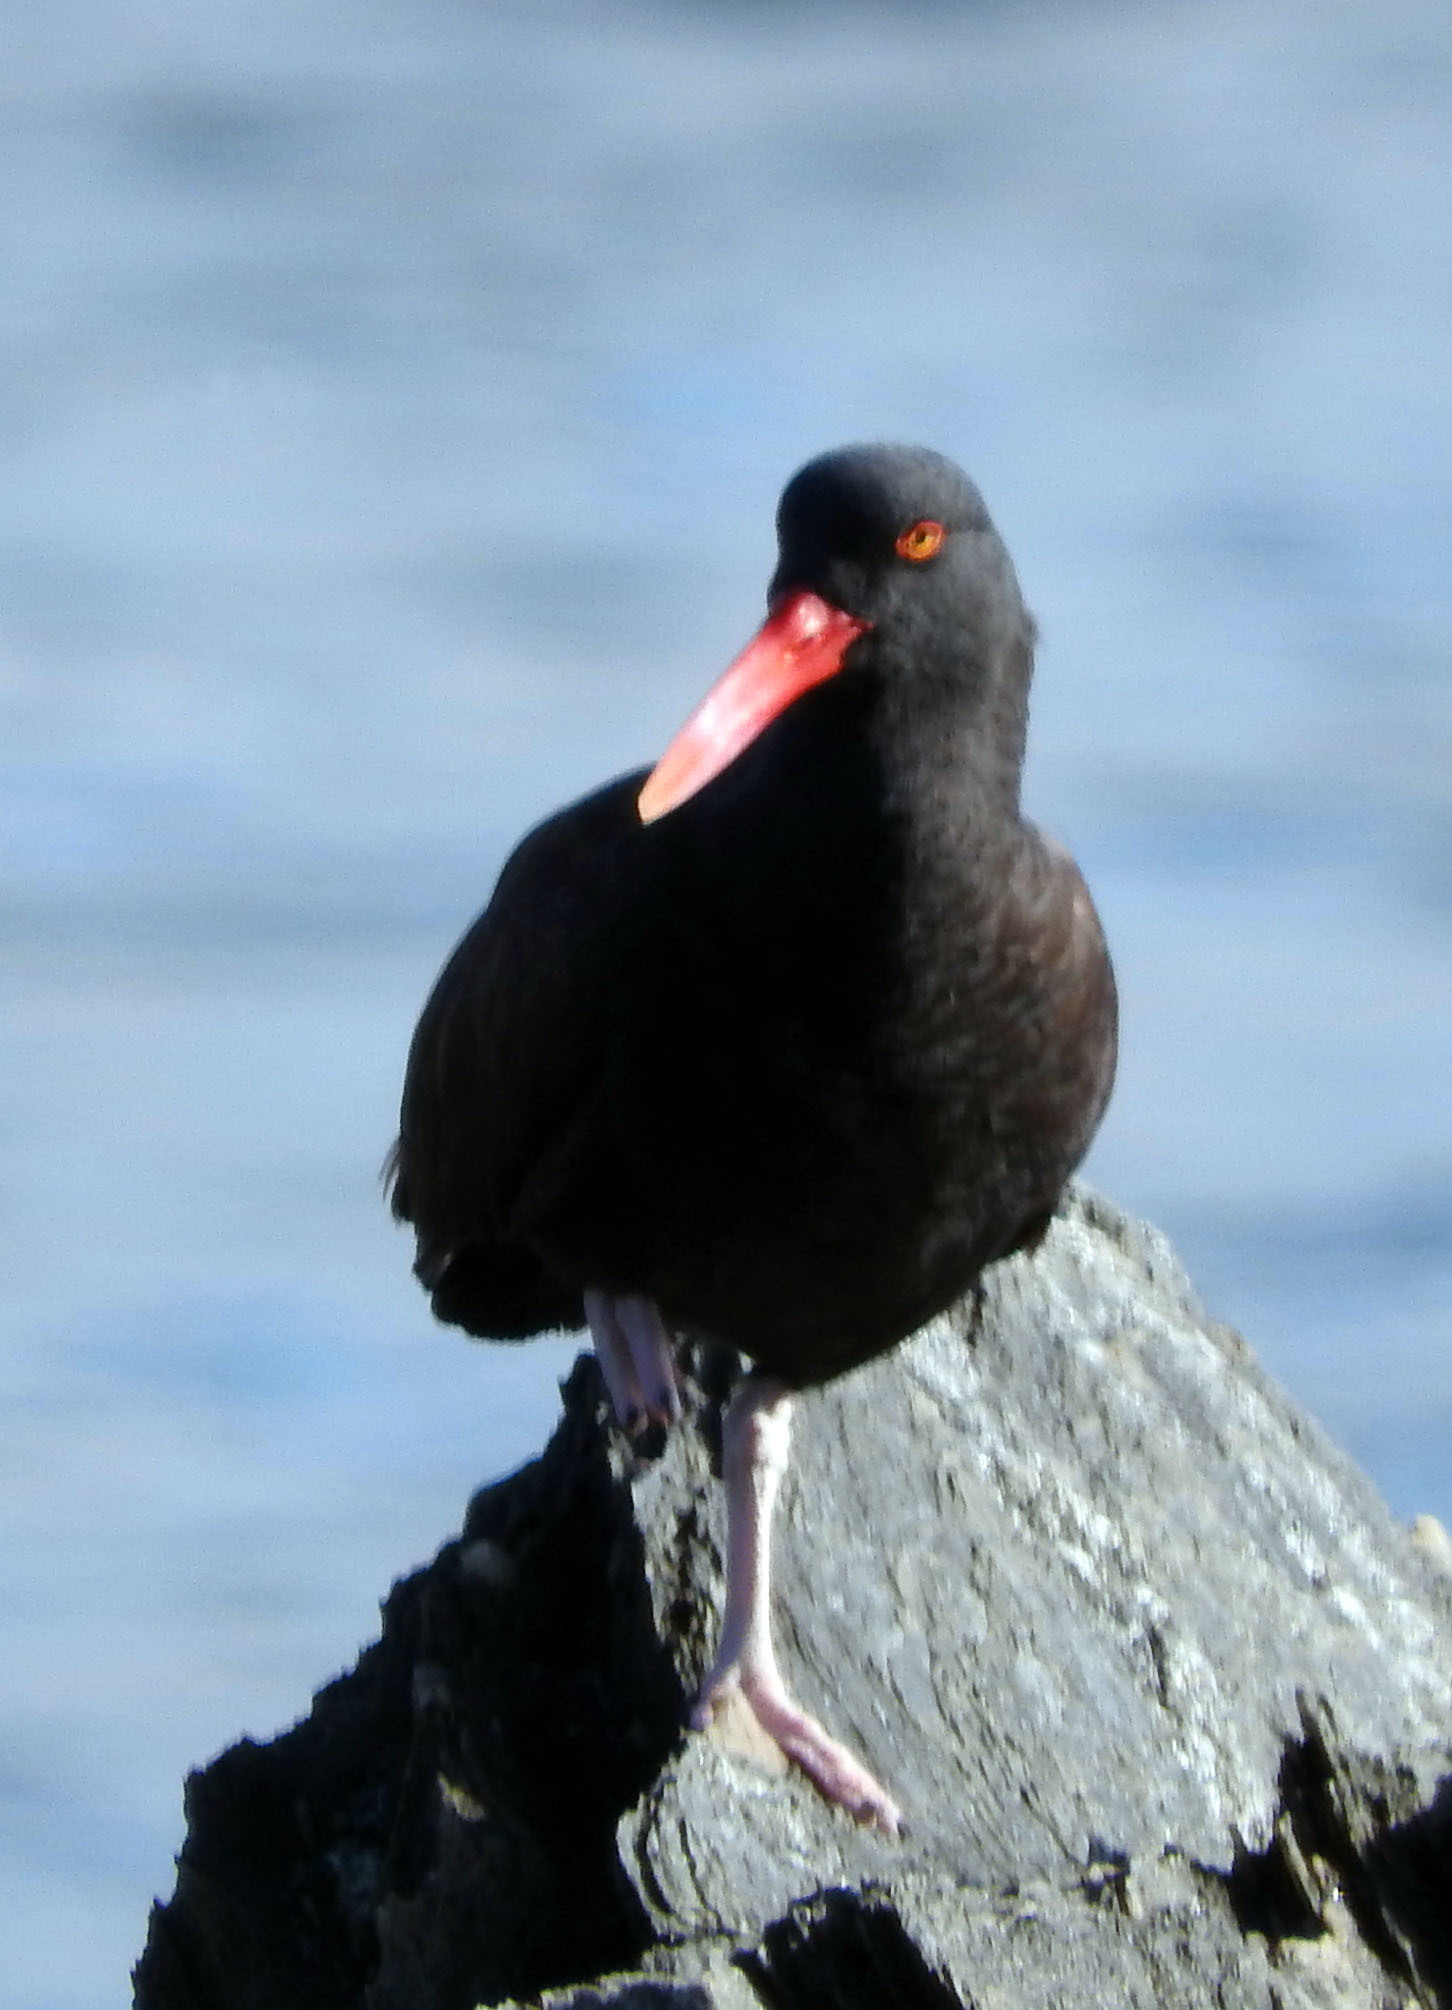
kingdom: Animalia
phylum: Chordata
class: Aves
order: Charadriiformes
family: Haematopodidae
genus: Haematopus
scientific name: Haematopus ater
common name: Blackish oystercatcher
